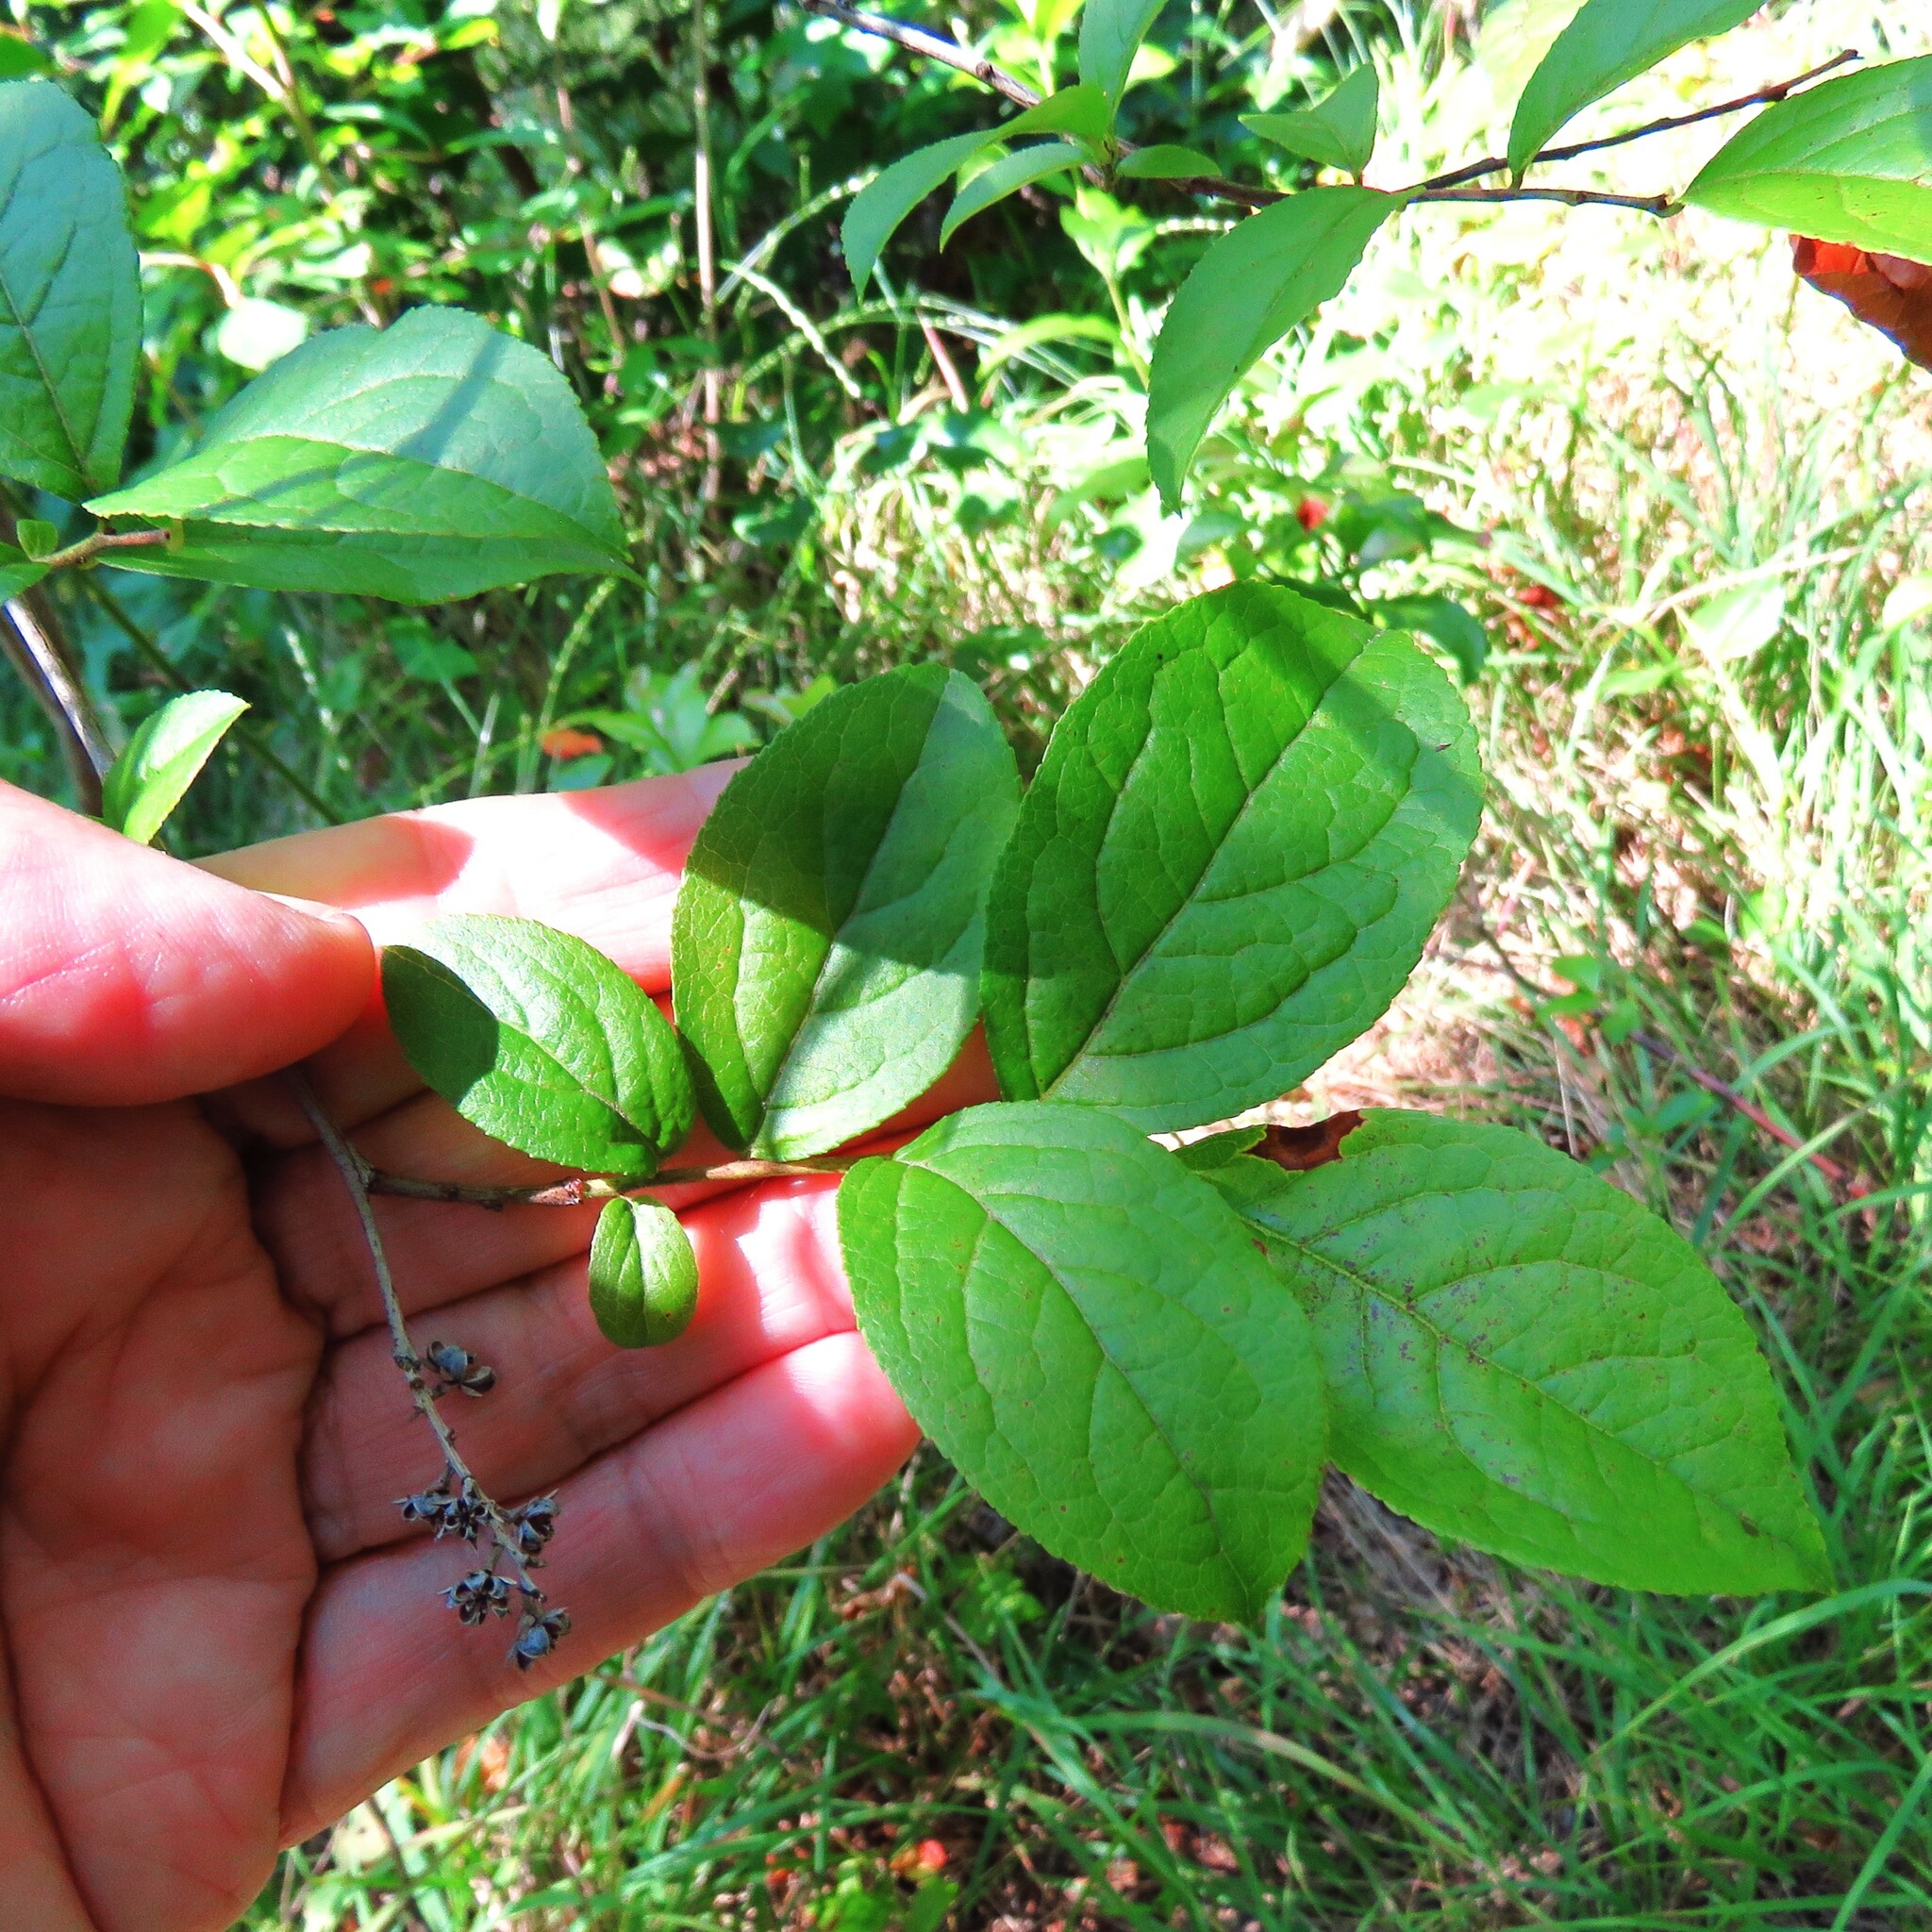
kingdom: Plantae
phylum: Tracheophyta
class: Magnoliopsida
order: Ericales
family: Ericaceae
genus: Eubotrys
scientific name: Eubotrys racemosa
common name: Fetterbush
